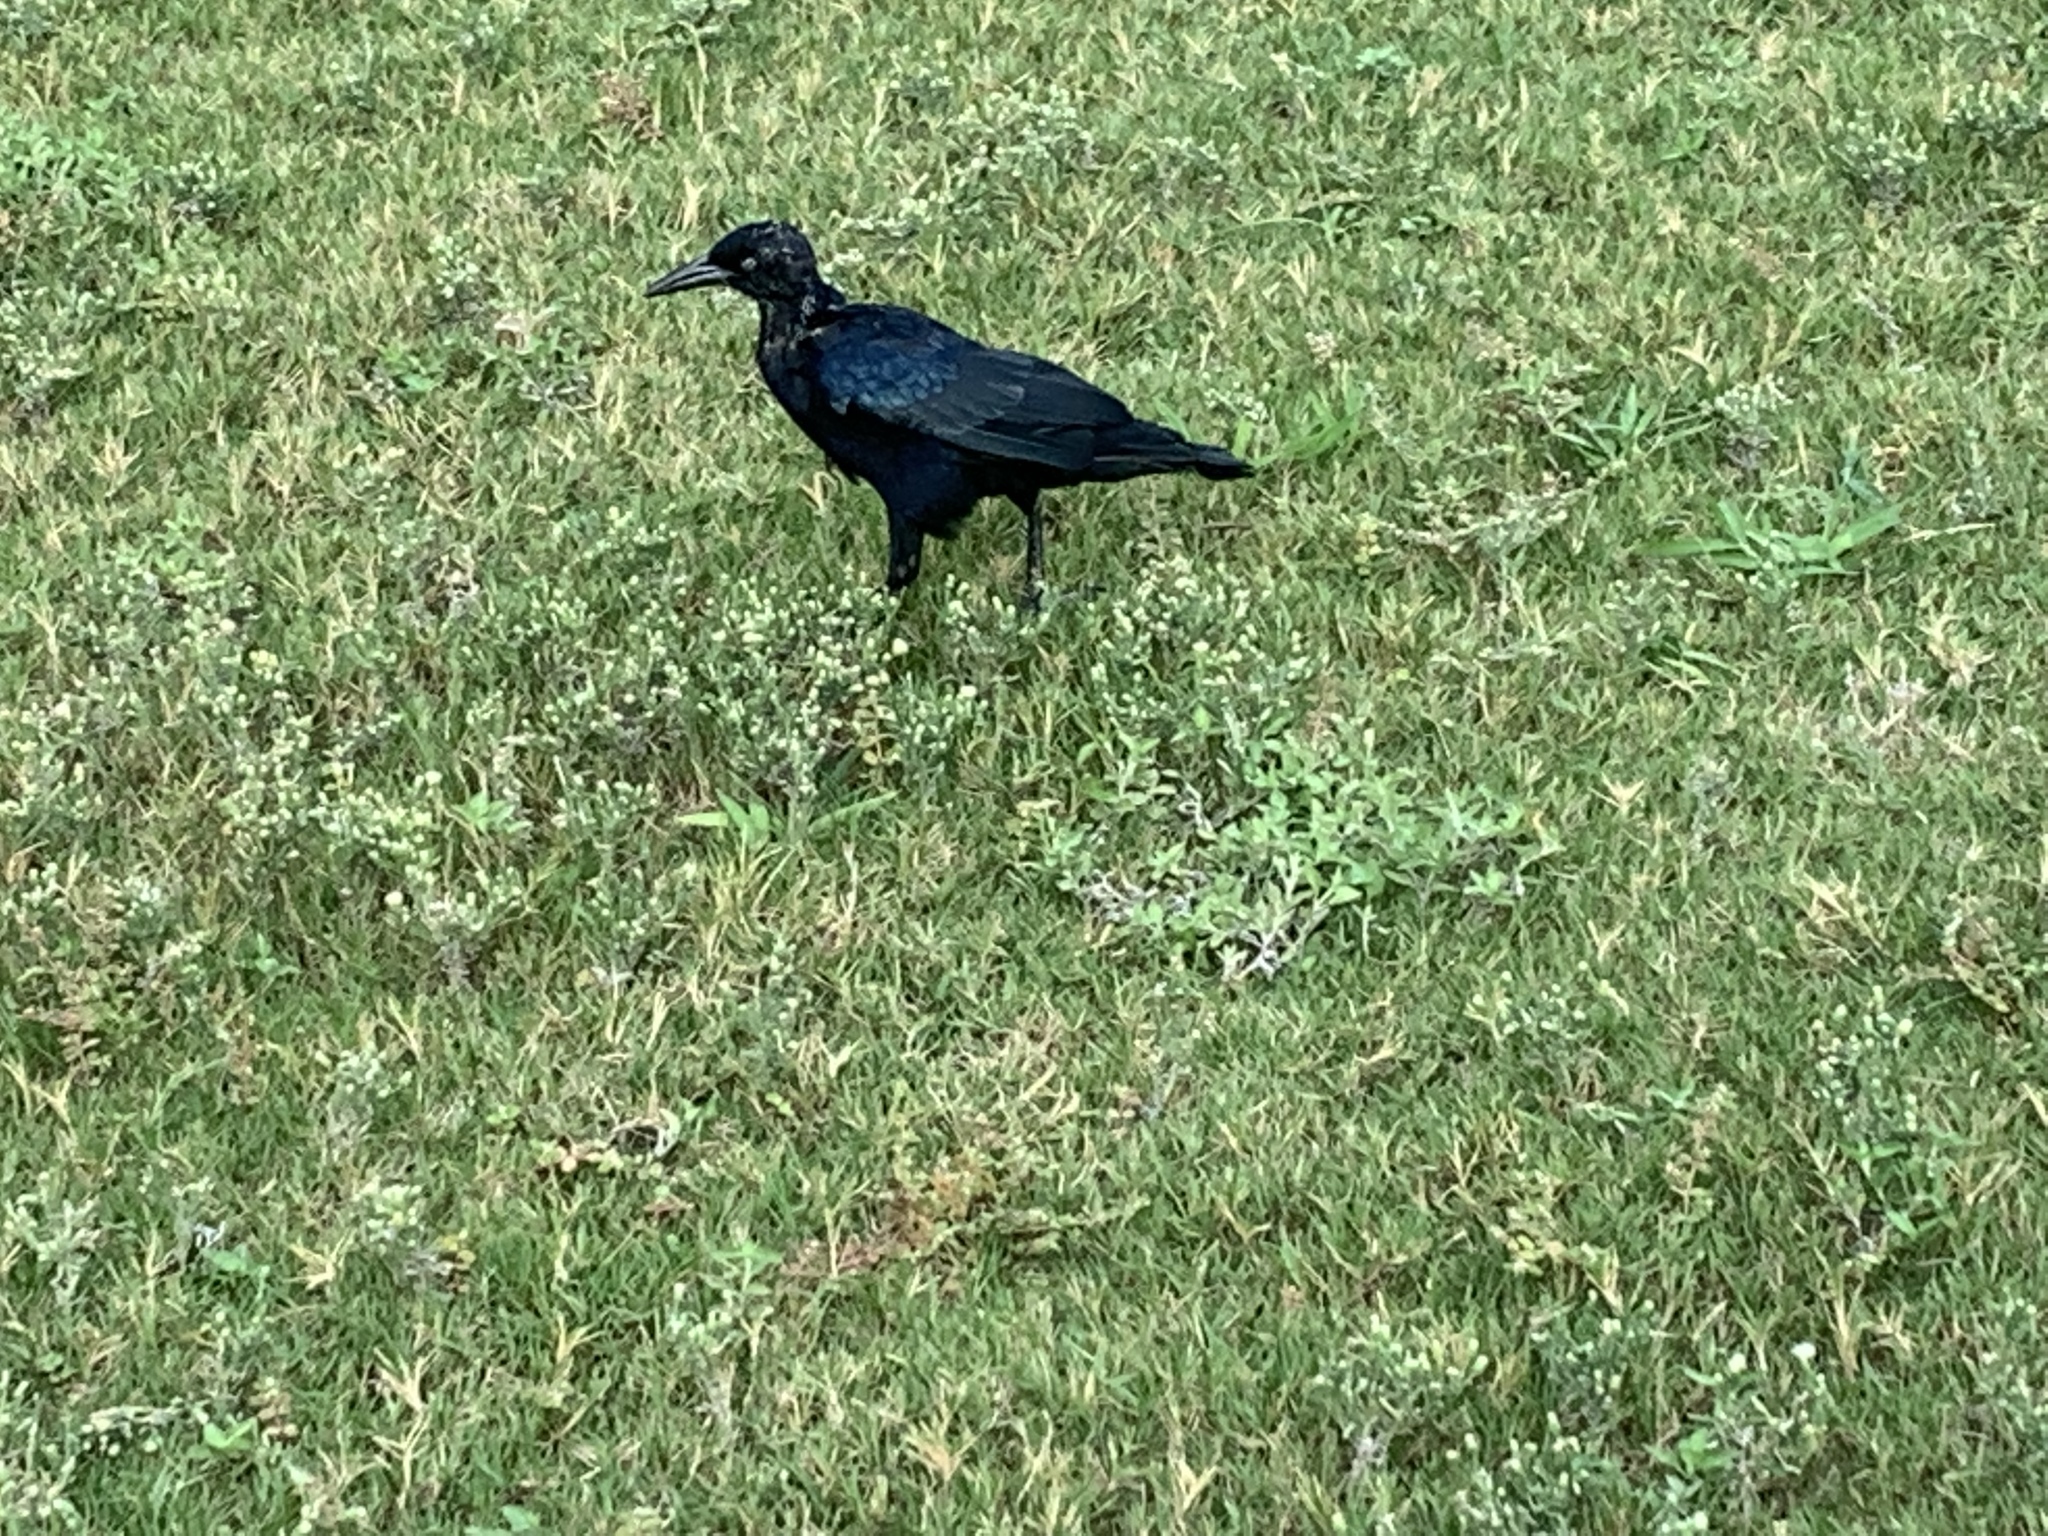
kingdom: Animalia
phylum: Chordata
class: Aves
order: Passeriformes
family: Icteridae
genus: Quiscalus
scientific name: Quiscalus mexicanus
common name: Great-tailed grackle
